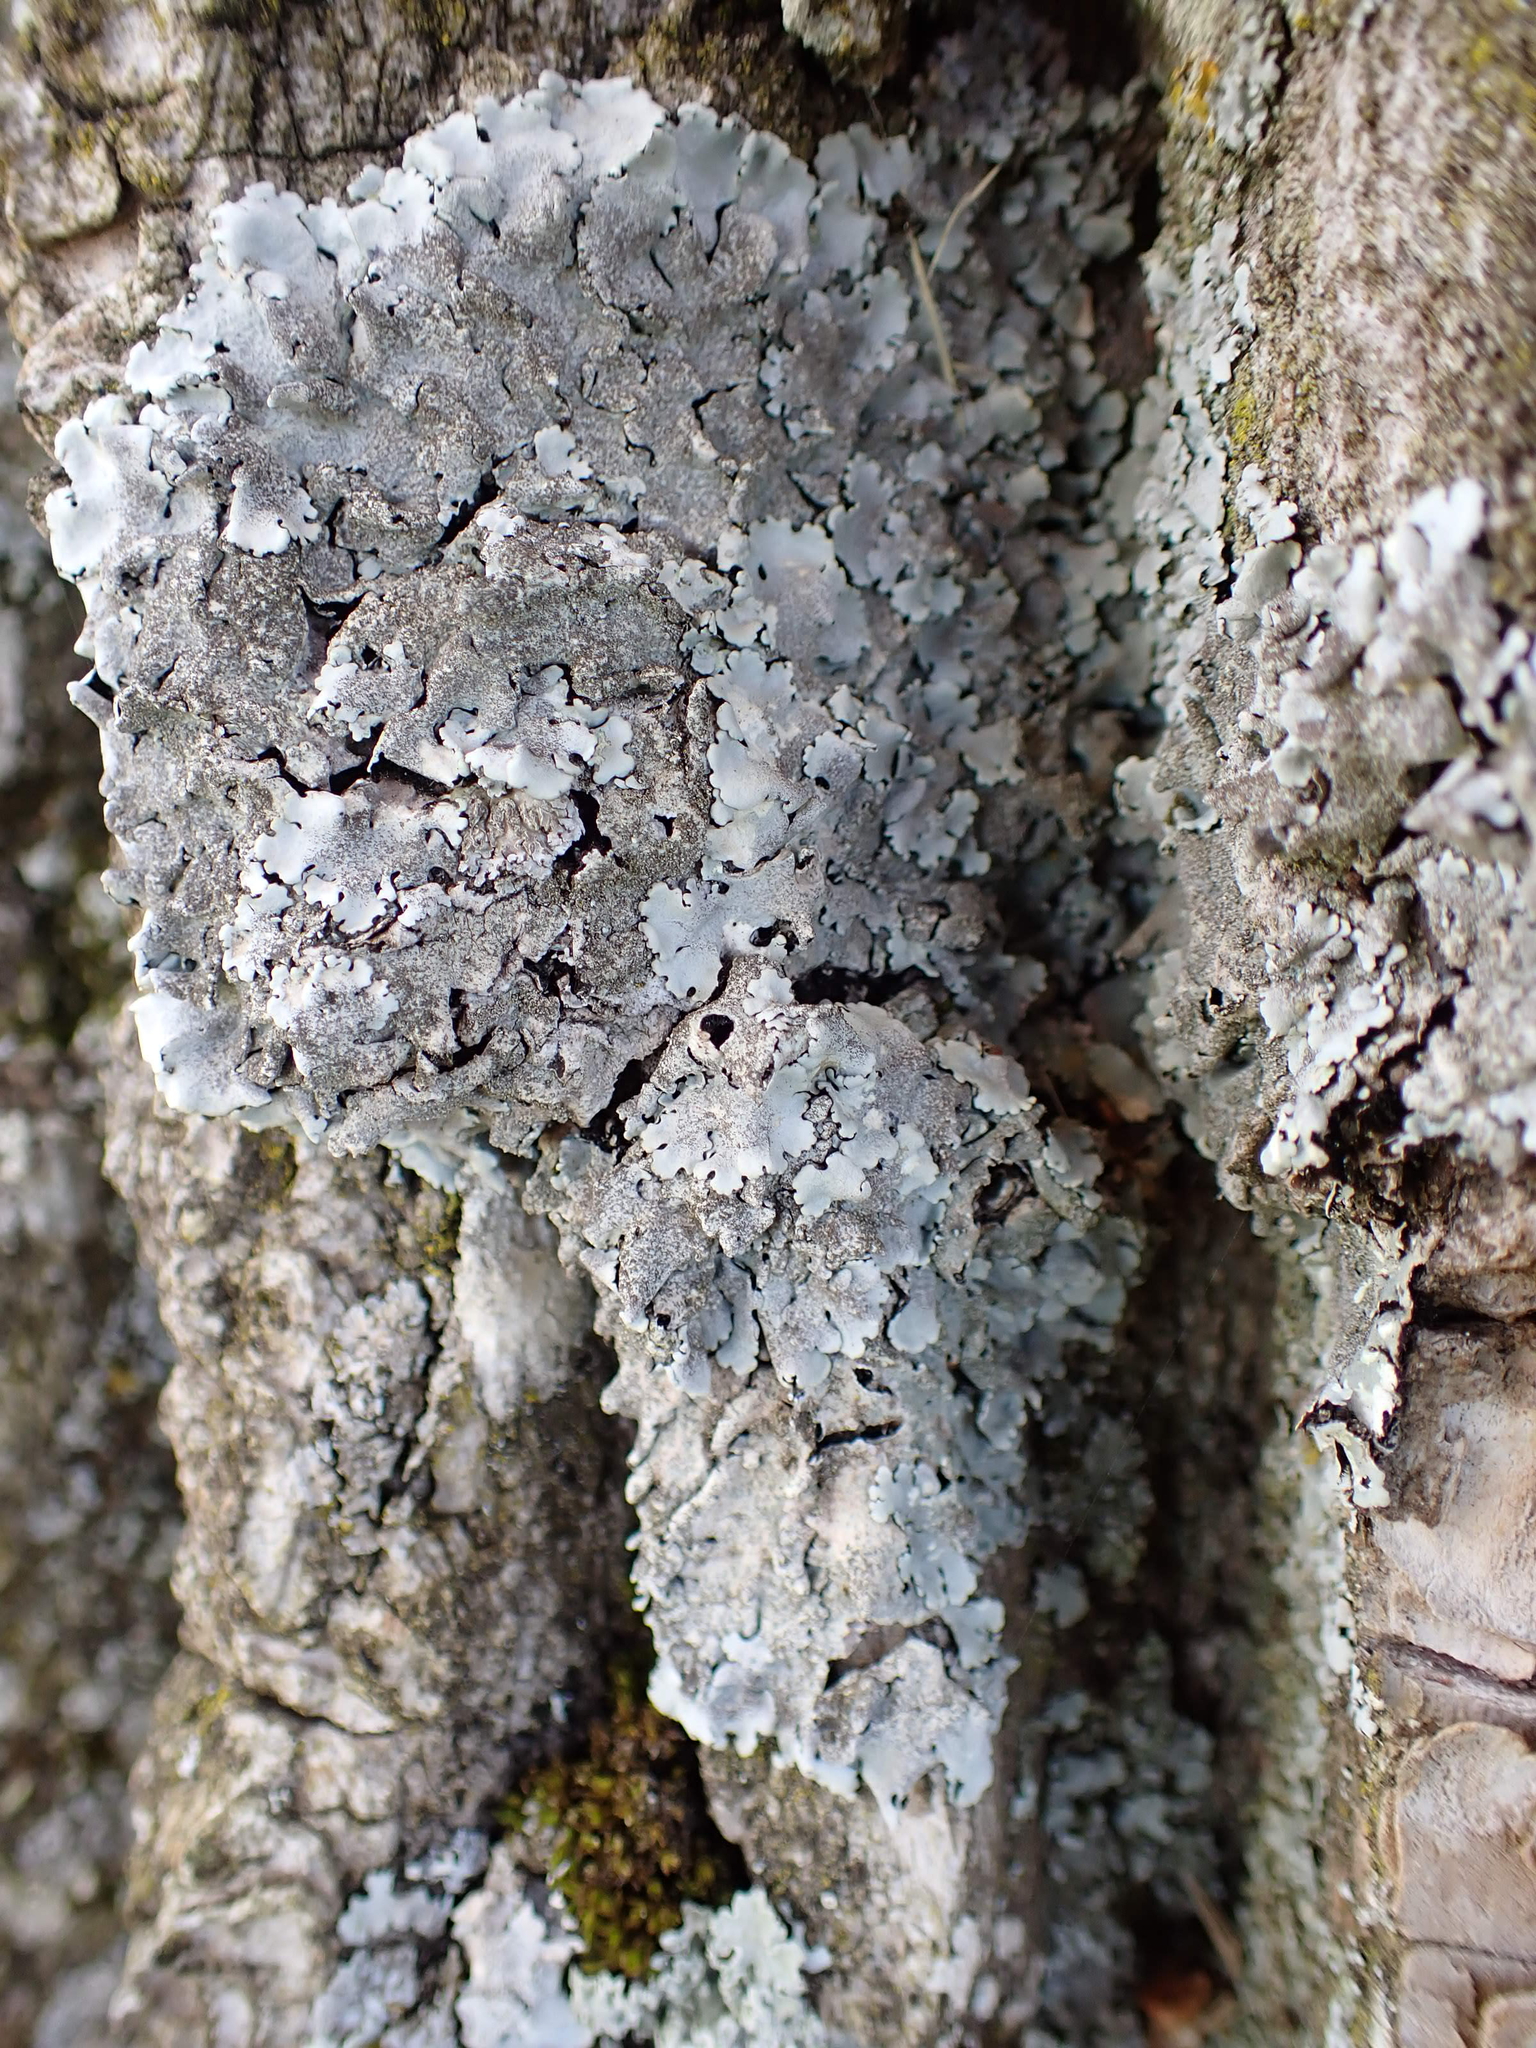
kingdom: Fungi
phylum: Ascomycota
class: Lecanoromycetes
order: Lecanorales
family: Parmeliaceae
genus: Parmelina
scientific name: Parmelina tiliacea
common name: Linden shield lichen
